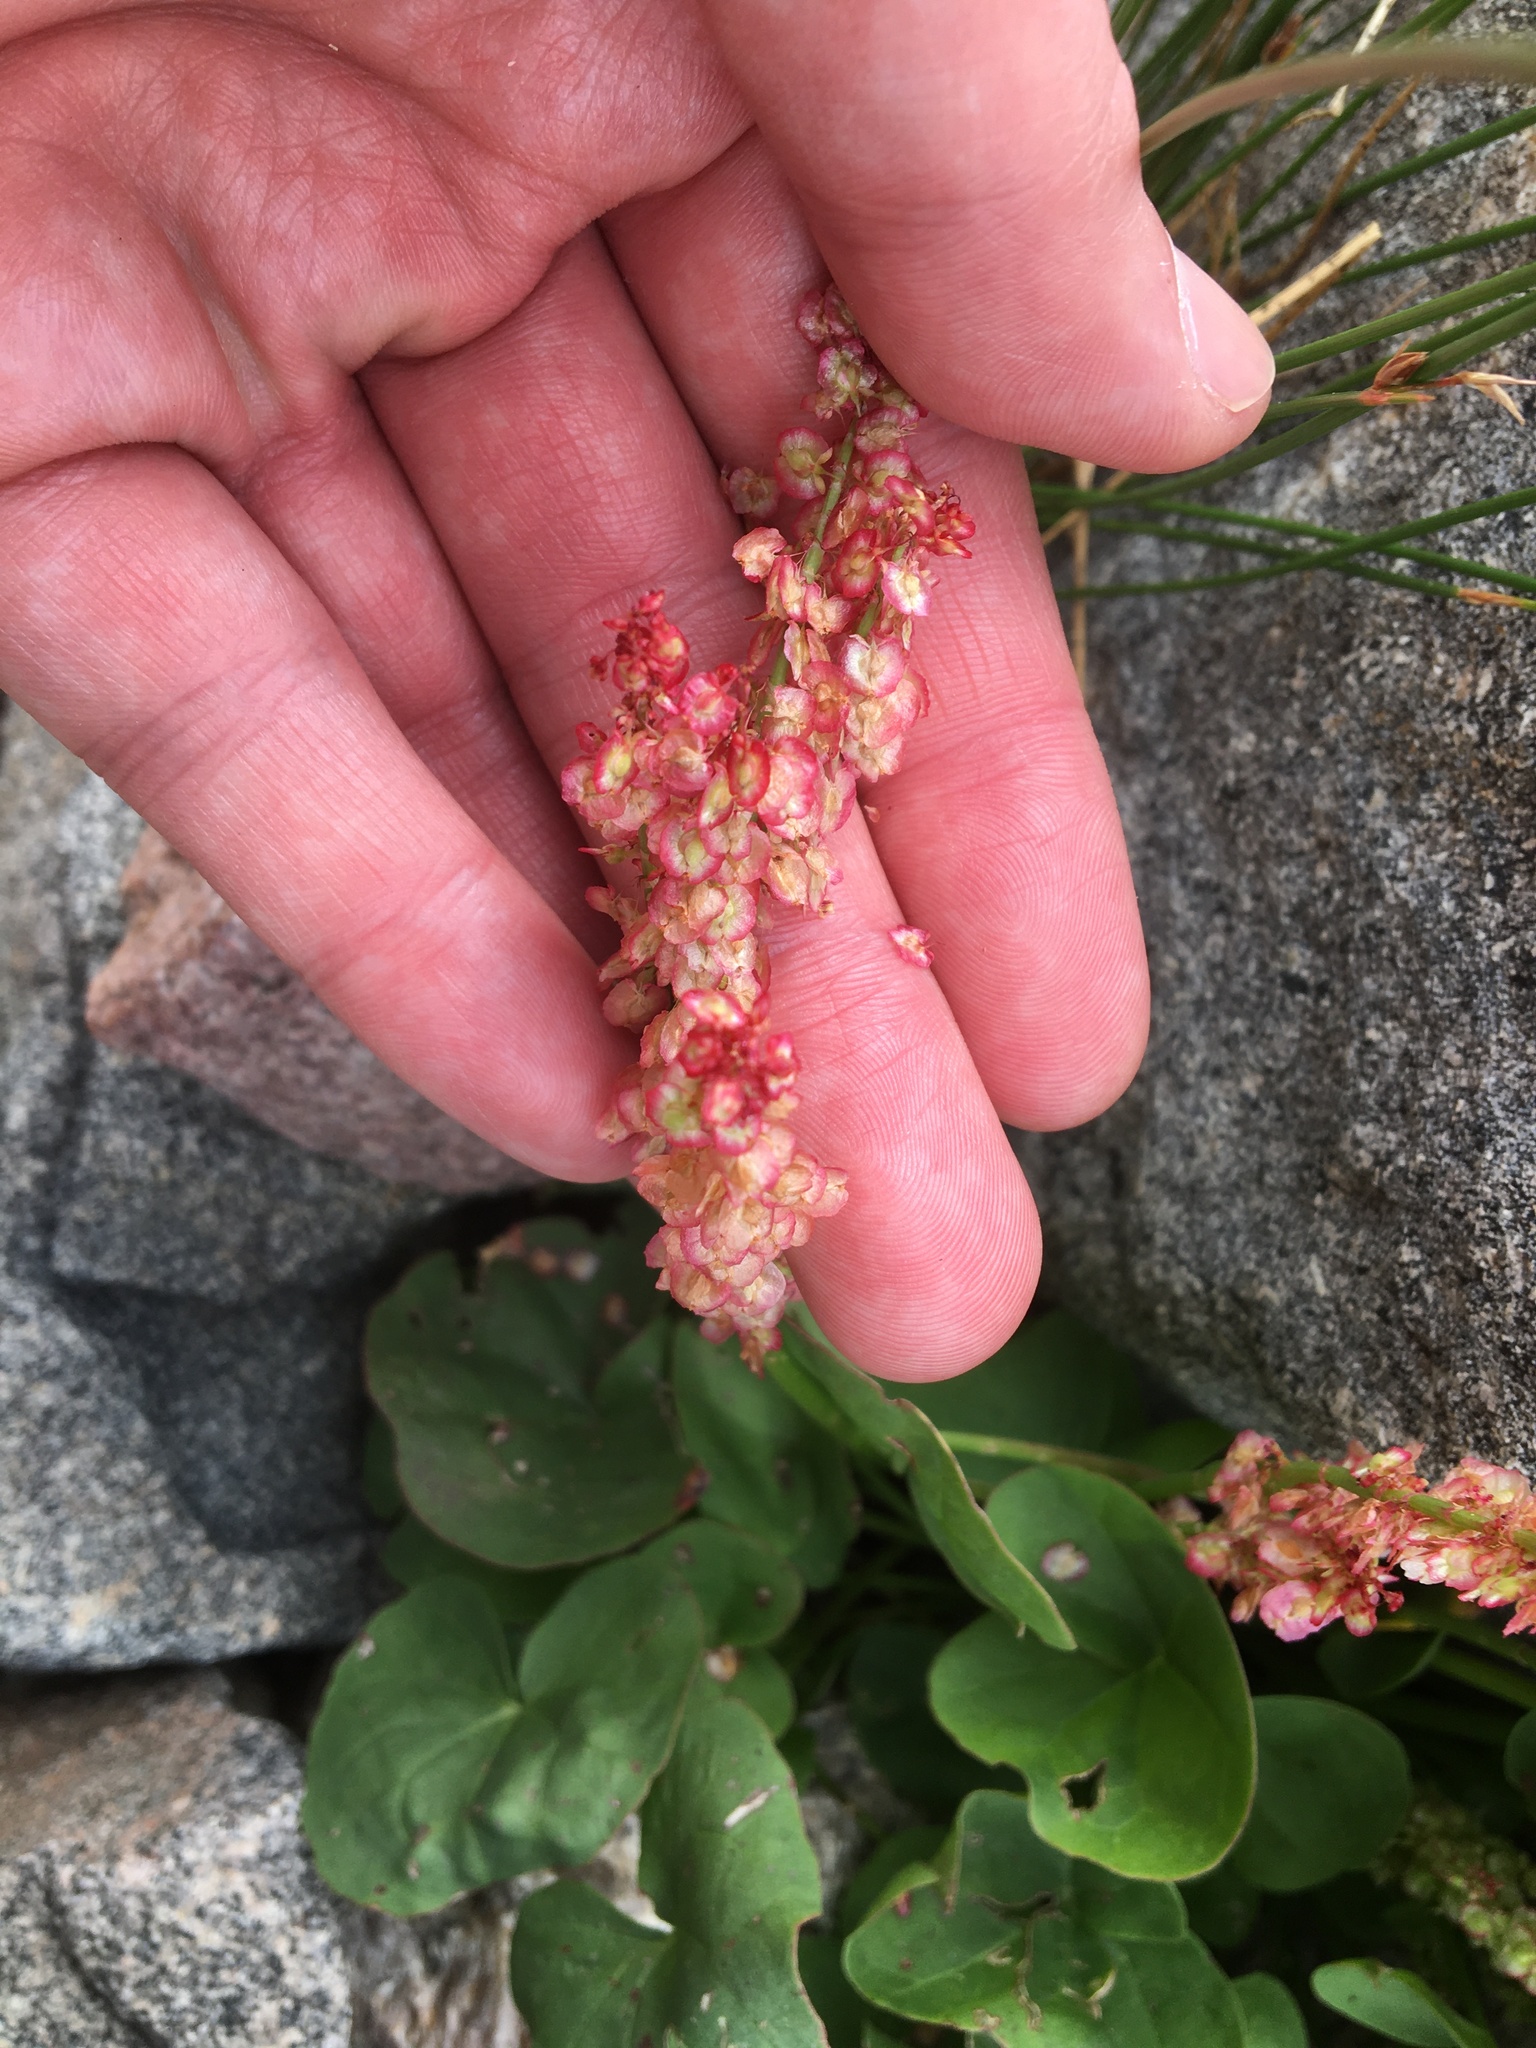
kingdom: Plantae
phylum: Tracheophyta
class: Magnoliopsida
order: Caryophyllales
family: Polygonaceae
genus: Oxyria
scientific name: Oxyria digyna
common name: Alpine mountain-sorrel
